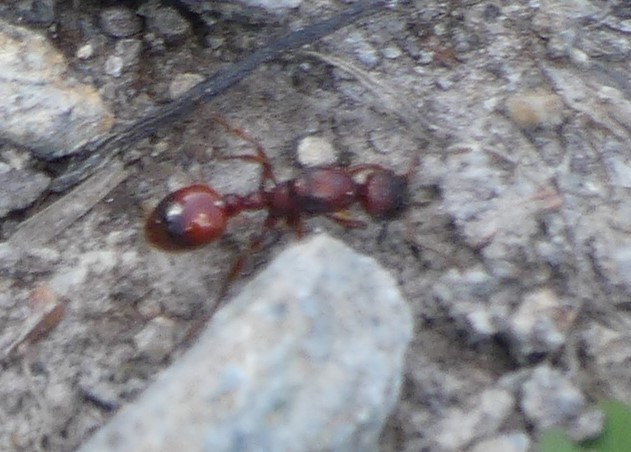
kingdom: Animalia
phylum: Arthropoda
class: Insecta
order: Hymenoptera
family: Formicidae
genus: Manica
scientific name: Manica rubida
